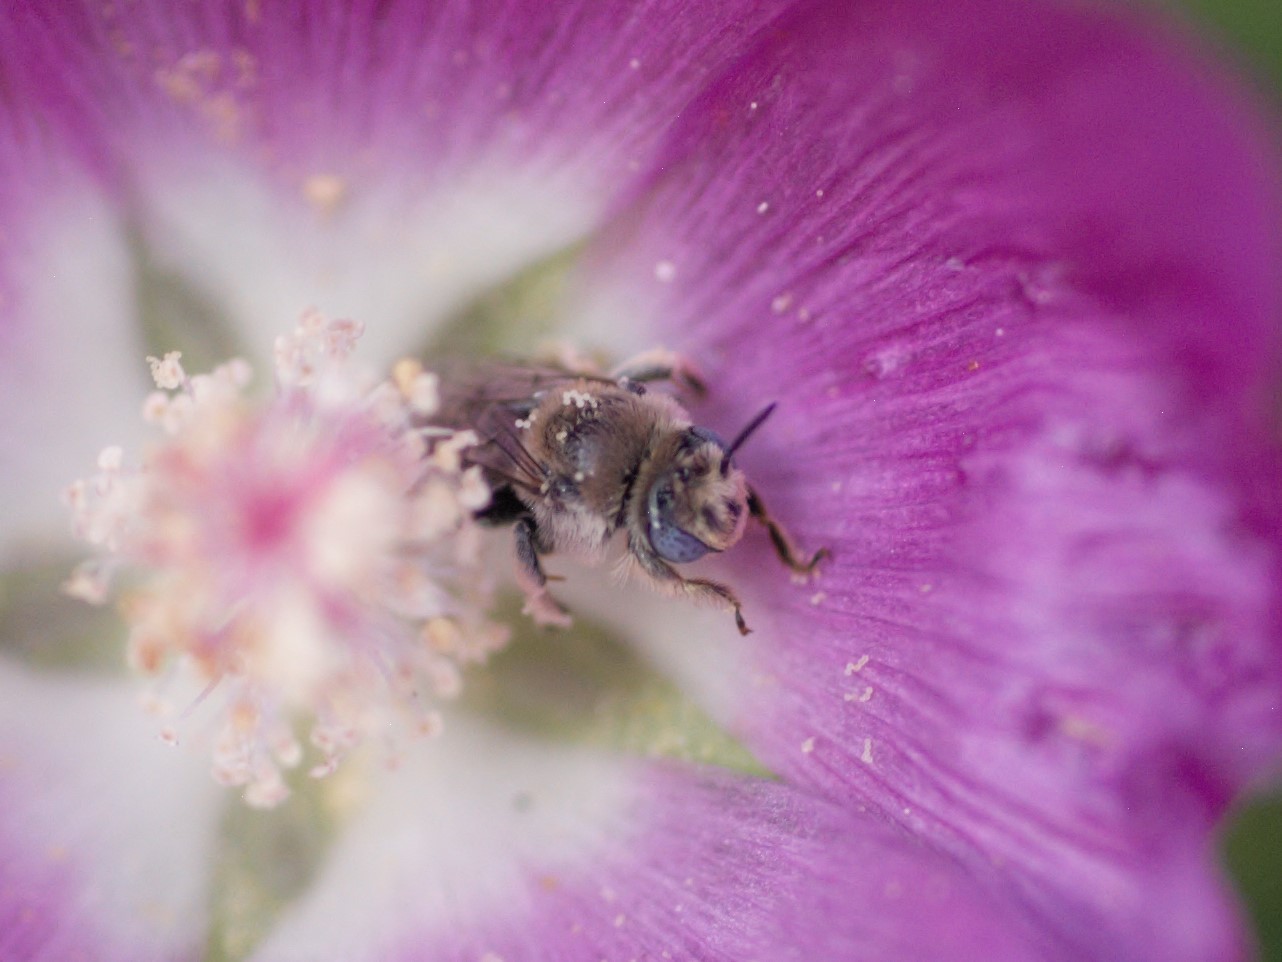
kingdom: Animalia
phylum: Arthropoda
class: Insecta
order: Hymenoptera
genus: Coquillettapis
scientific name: Coquillettapis
